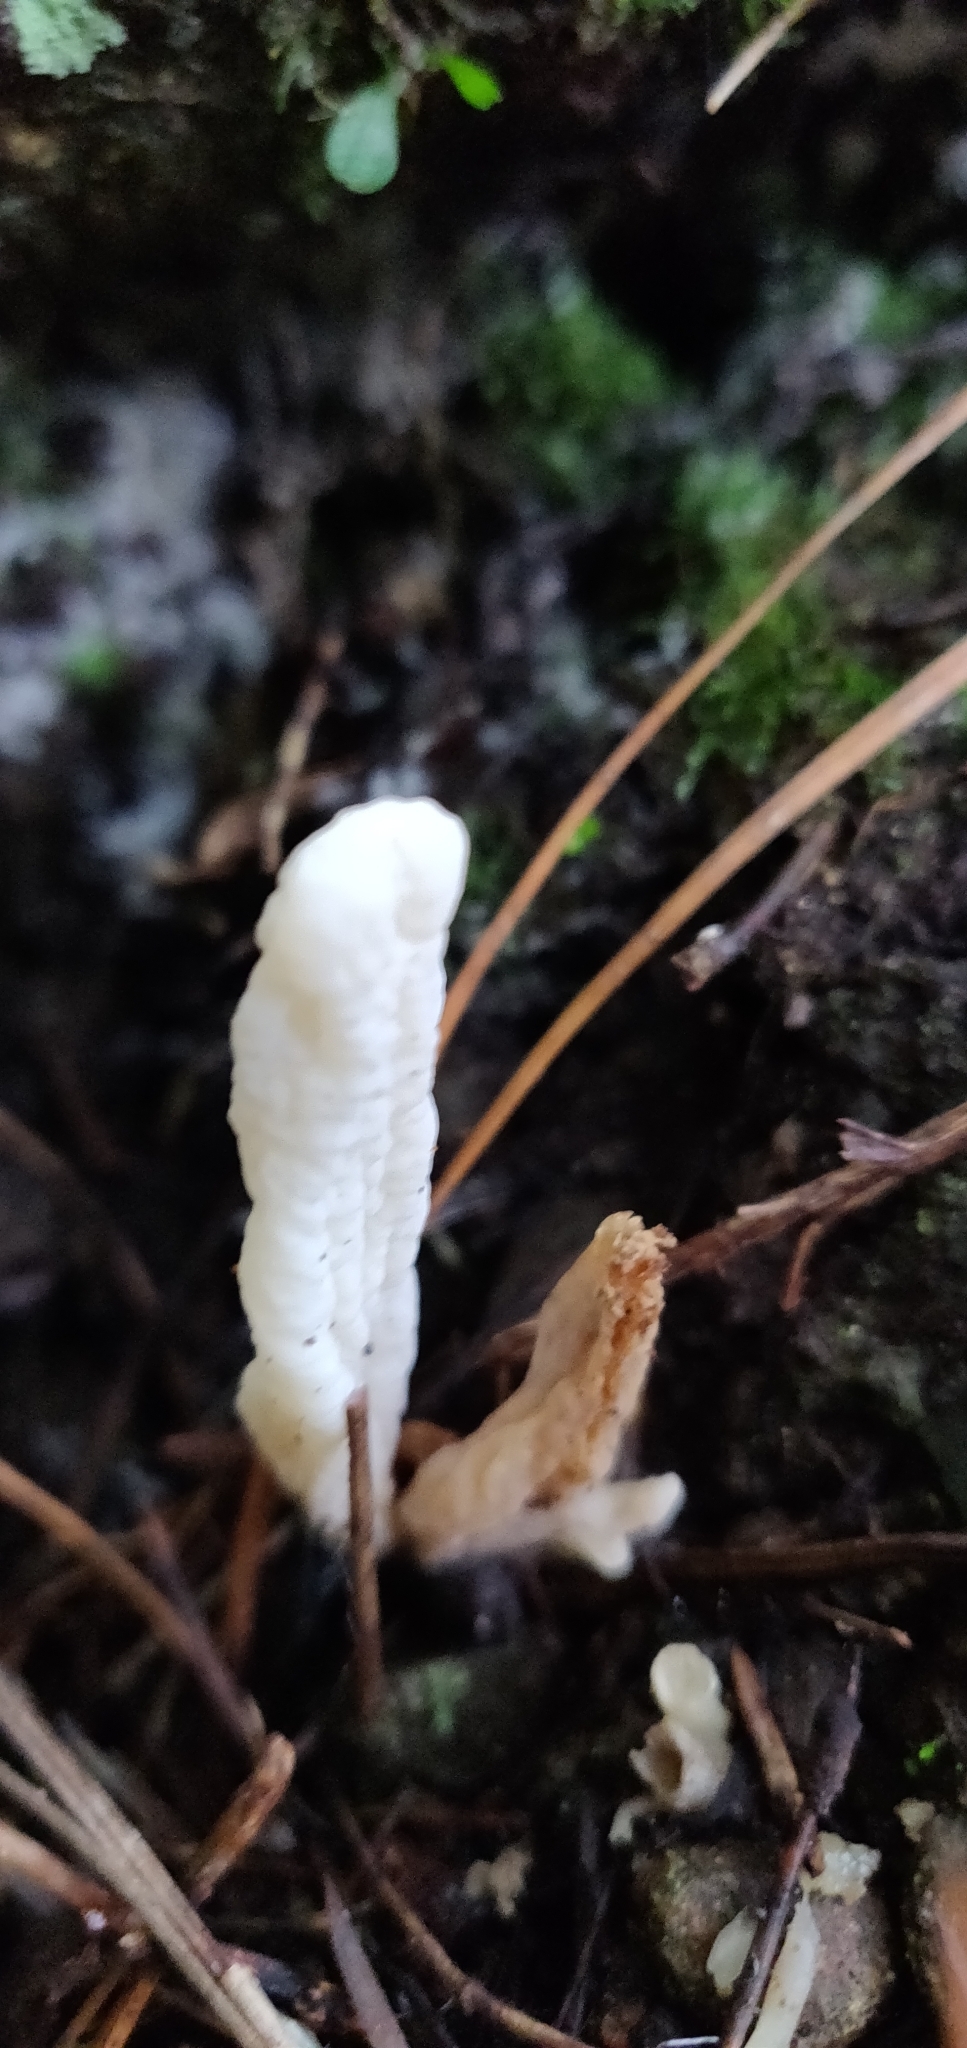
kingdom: Fungi
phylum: Basidiomycota
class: Agaricomycetes
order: Cantharellales
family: Hydnaceae
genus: Clavulina
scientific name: Clavulina rugosa
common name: Wrinkled club
